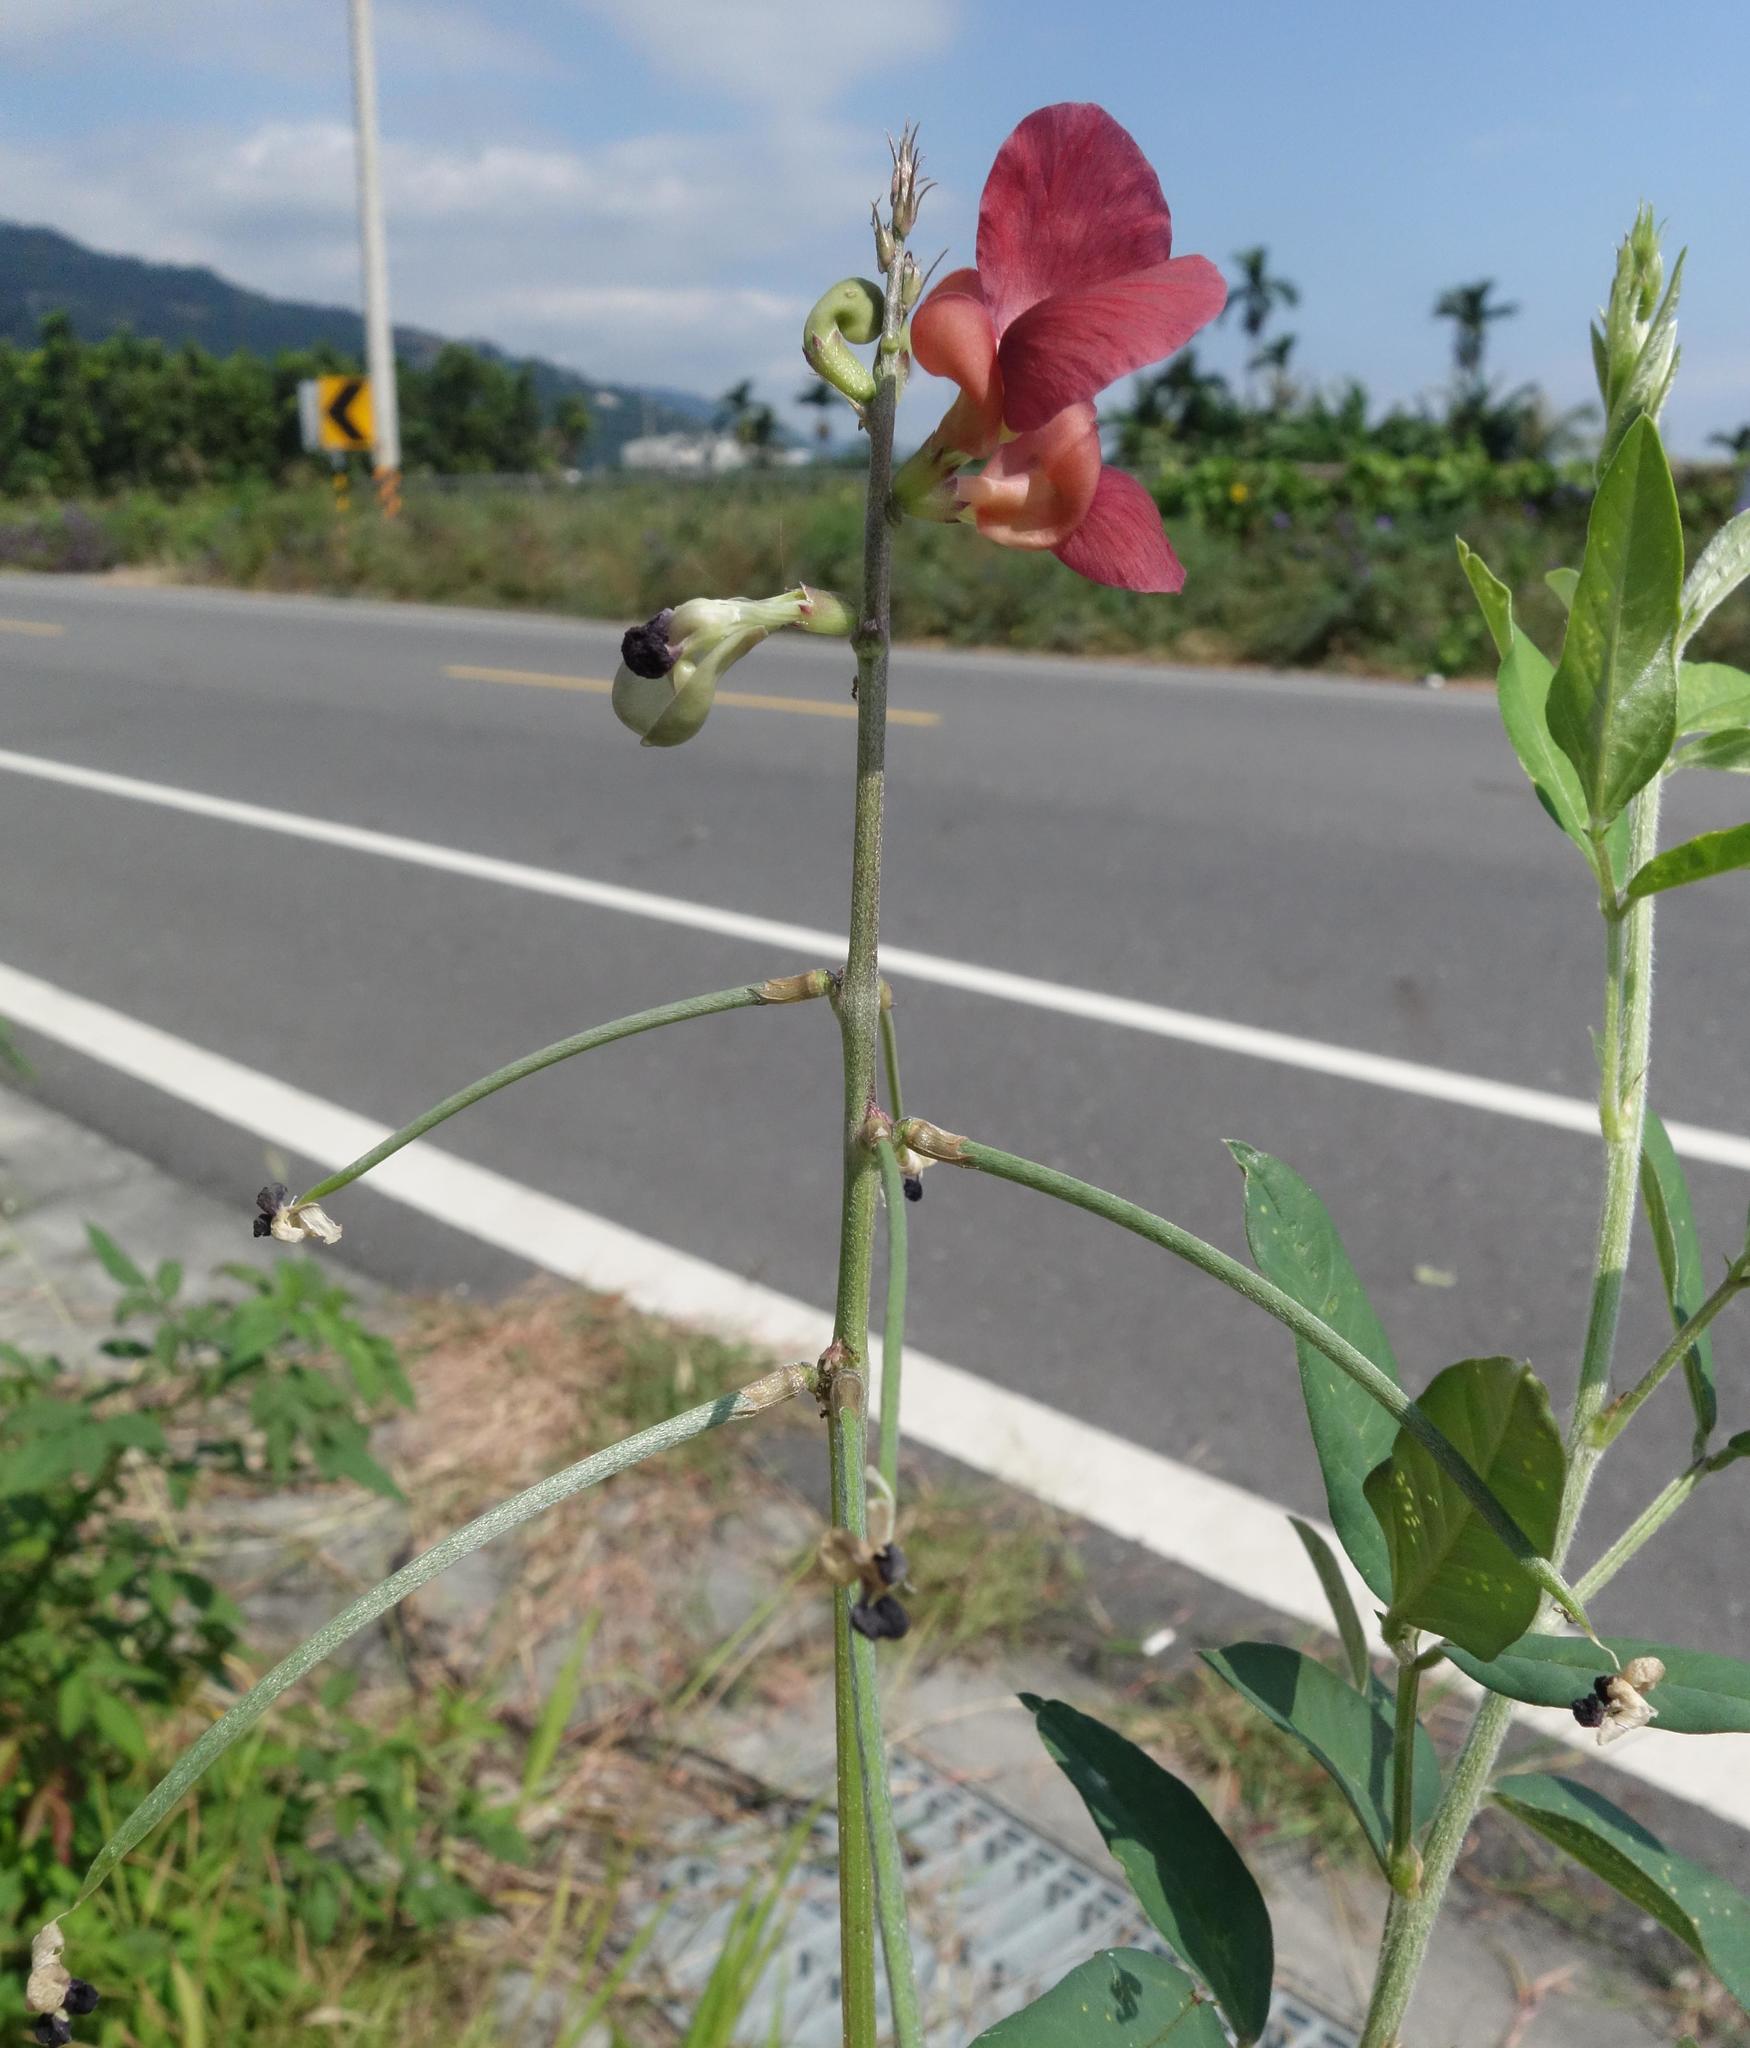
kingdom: Plantae
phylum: Tracheophyta
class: Magnoliopsida
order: Fabales
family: Fabaceae
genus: Macroptilium
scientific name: Macroptilium lathyroides
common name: Wild bushbean
